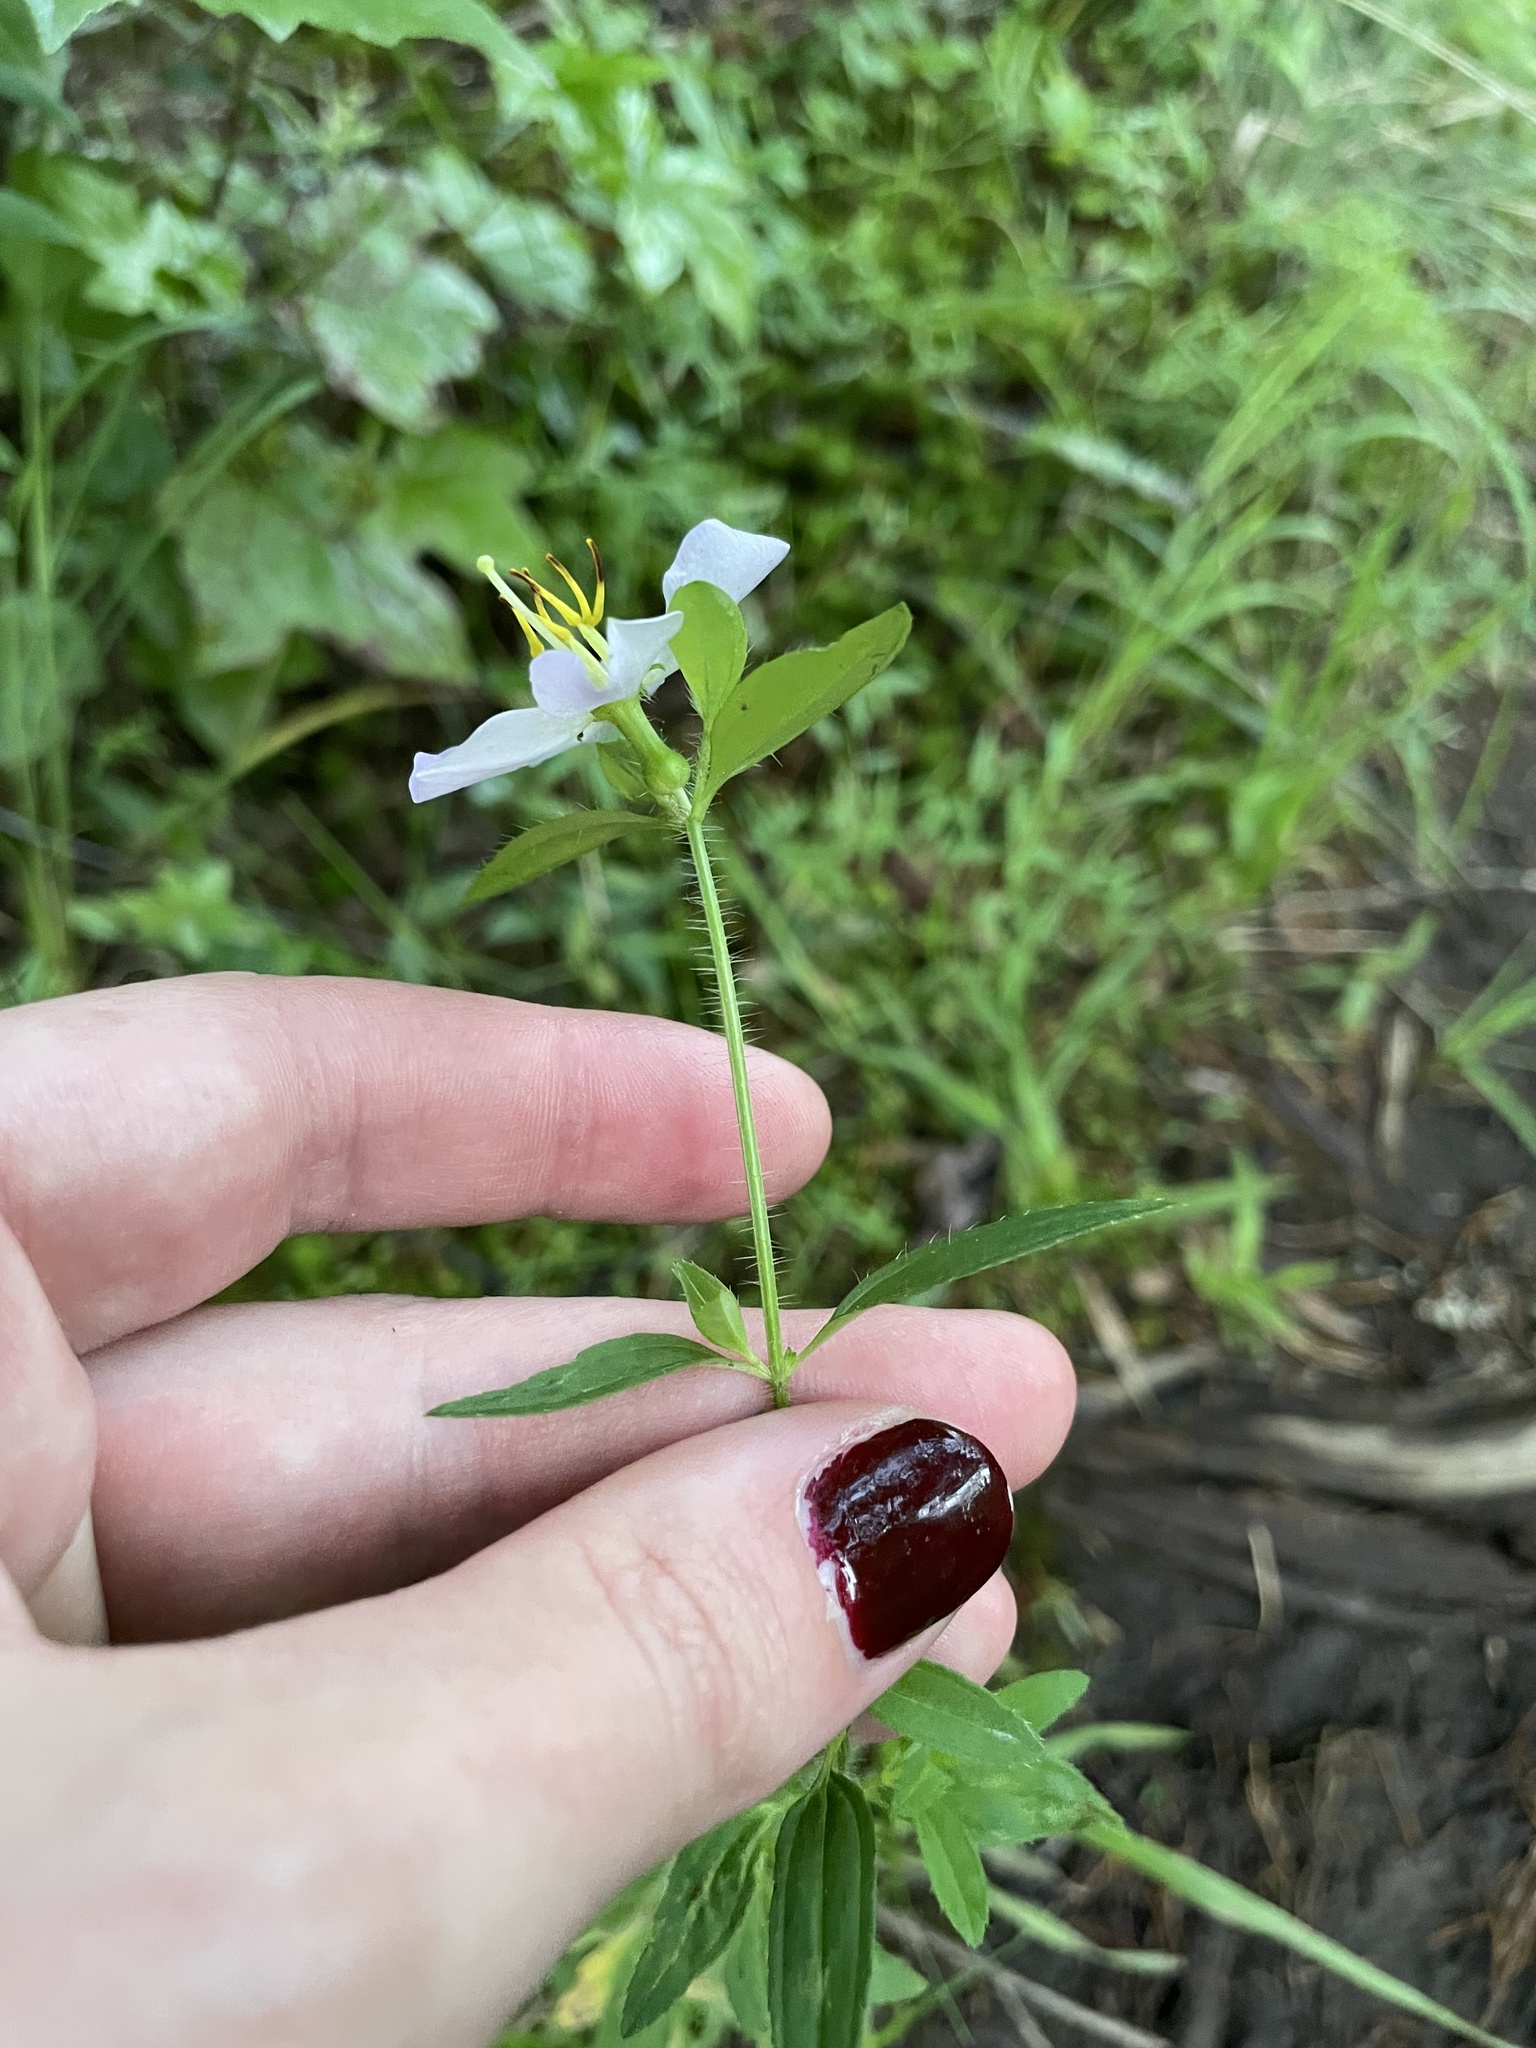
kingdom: Plantae
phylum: Tracheophyta
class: Magnoliopsida
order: Myrtales
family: Melastomataceae
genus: Rhexia
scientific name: Rhexia mariana
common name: Dull meadow-pitcher
